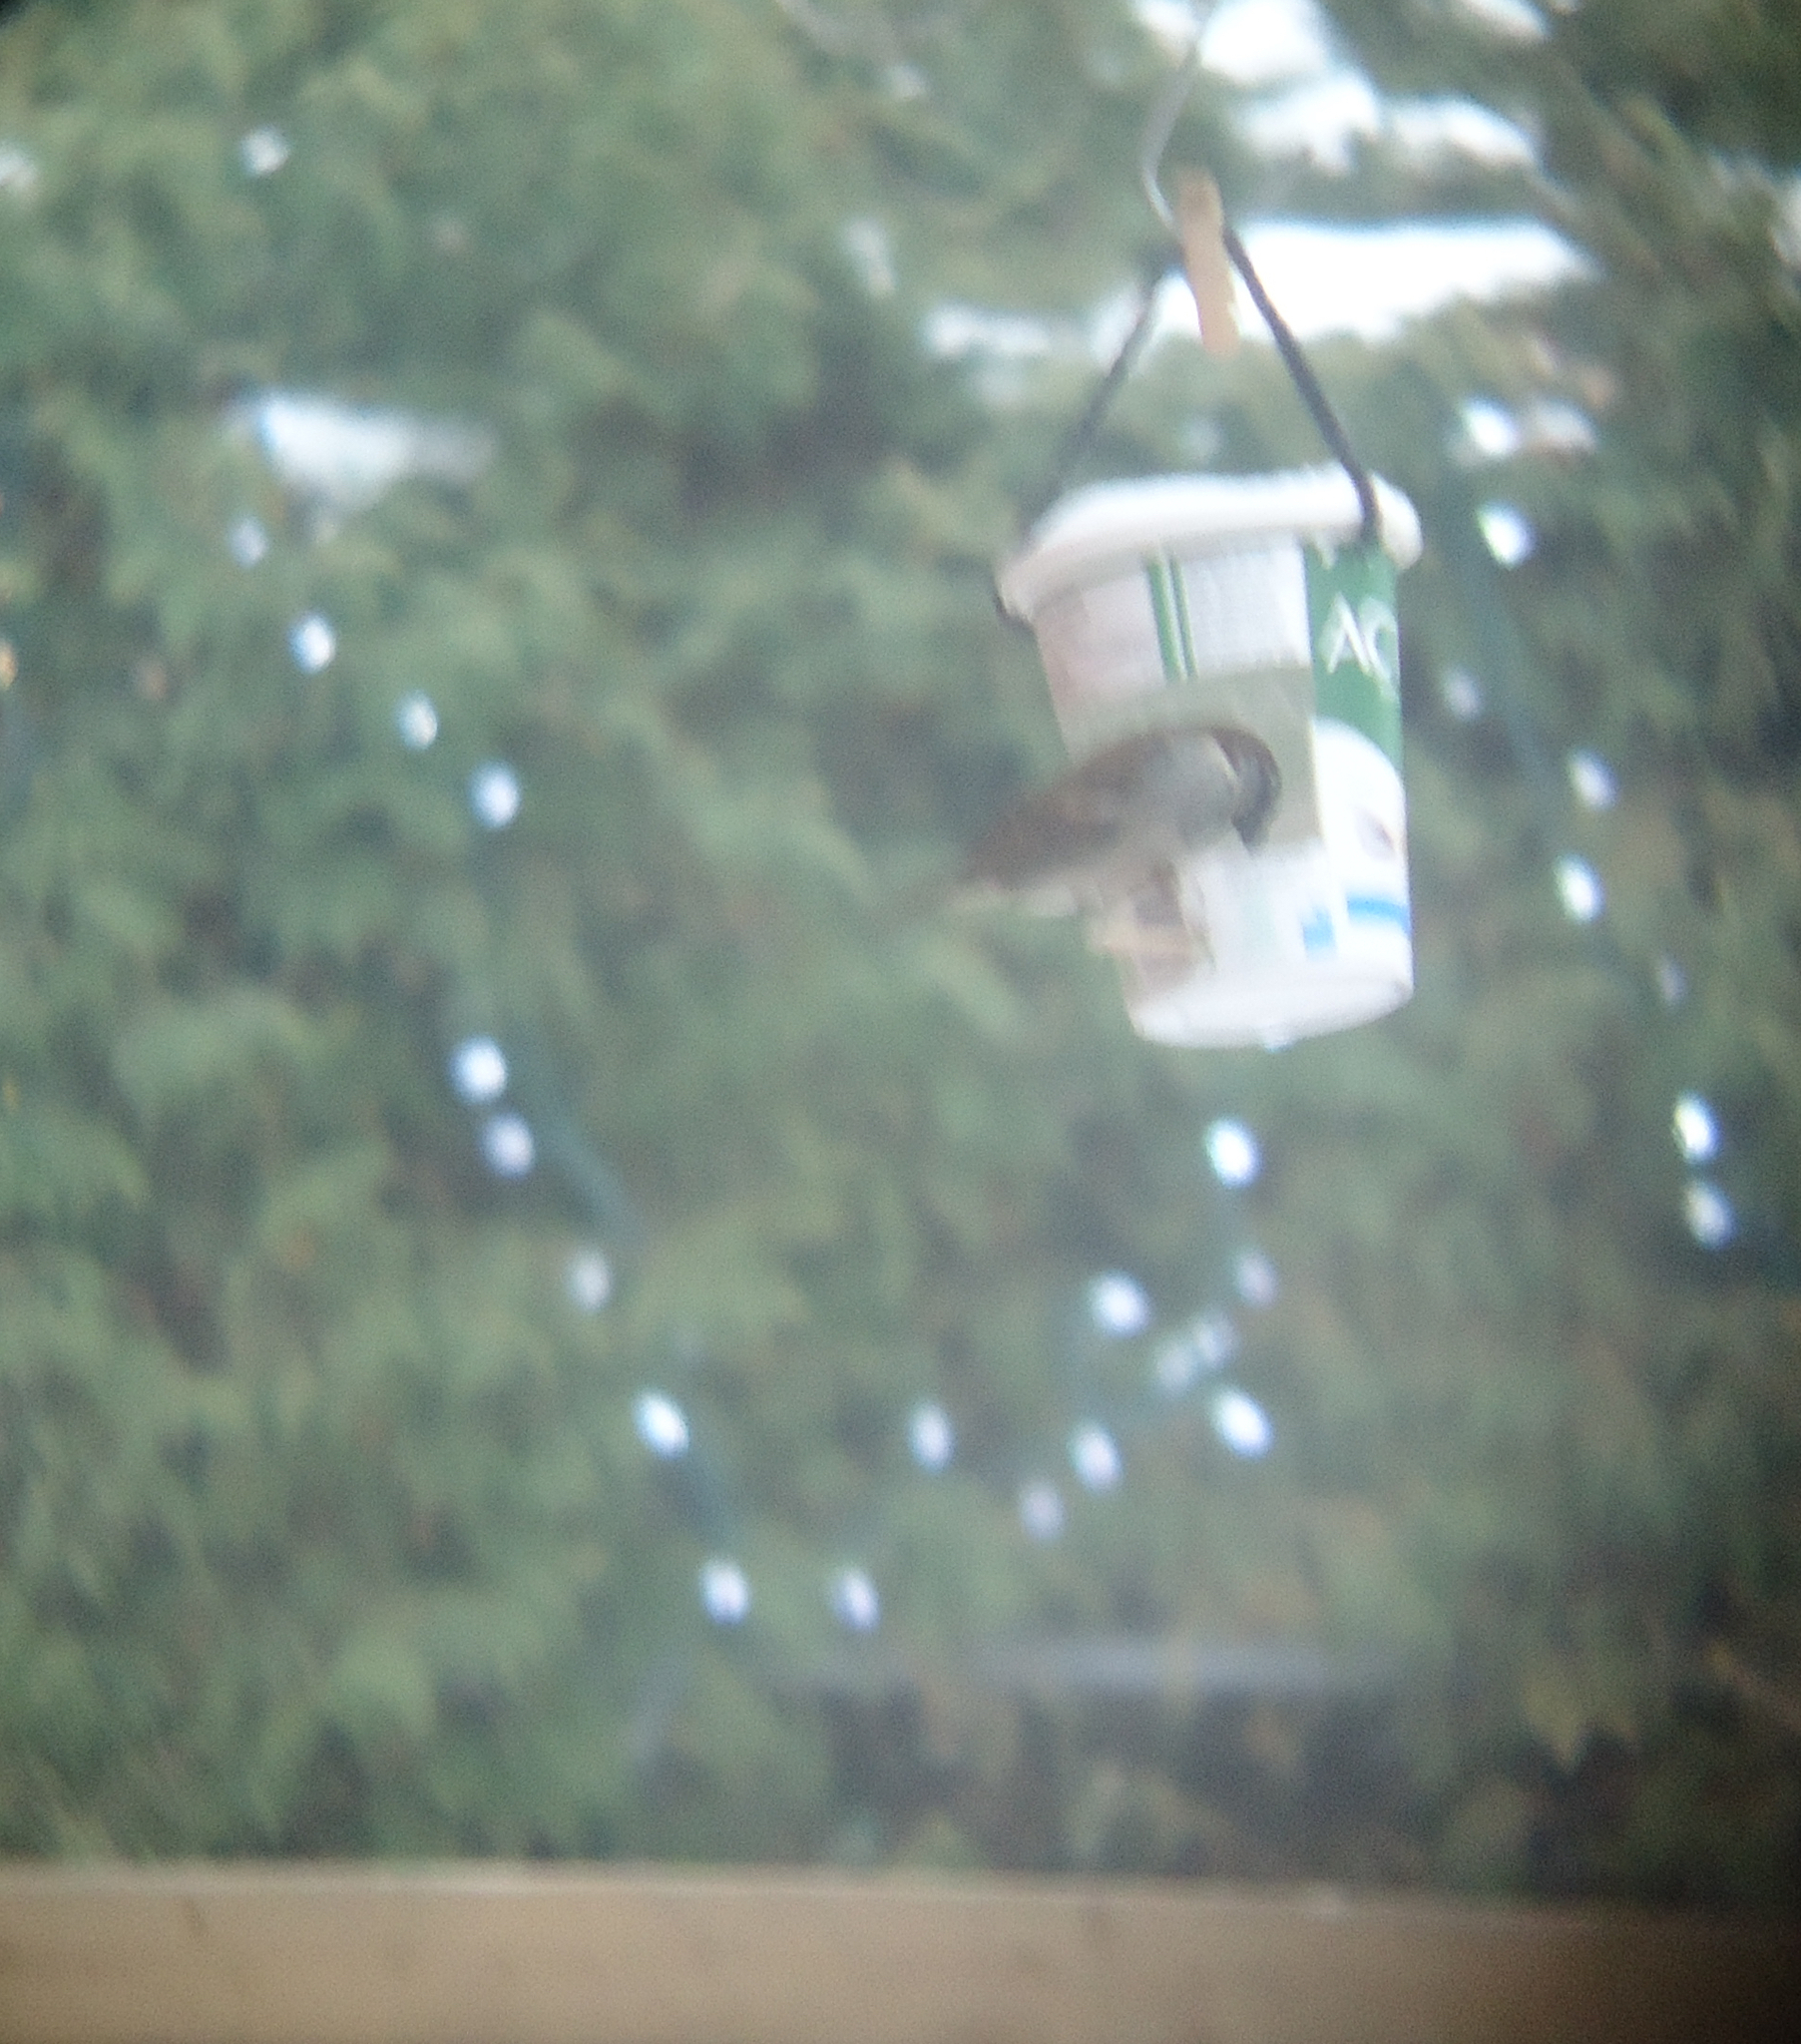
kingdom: Animalia
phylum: Chordata
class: Aves
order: Passeriformes
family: Passeridae
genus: Passer
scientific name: Passer domesticus
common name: House sparrow
